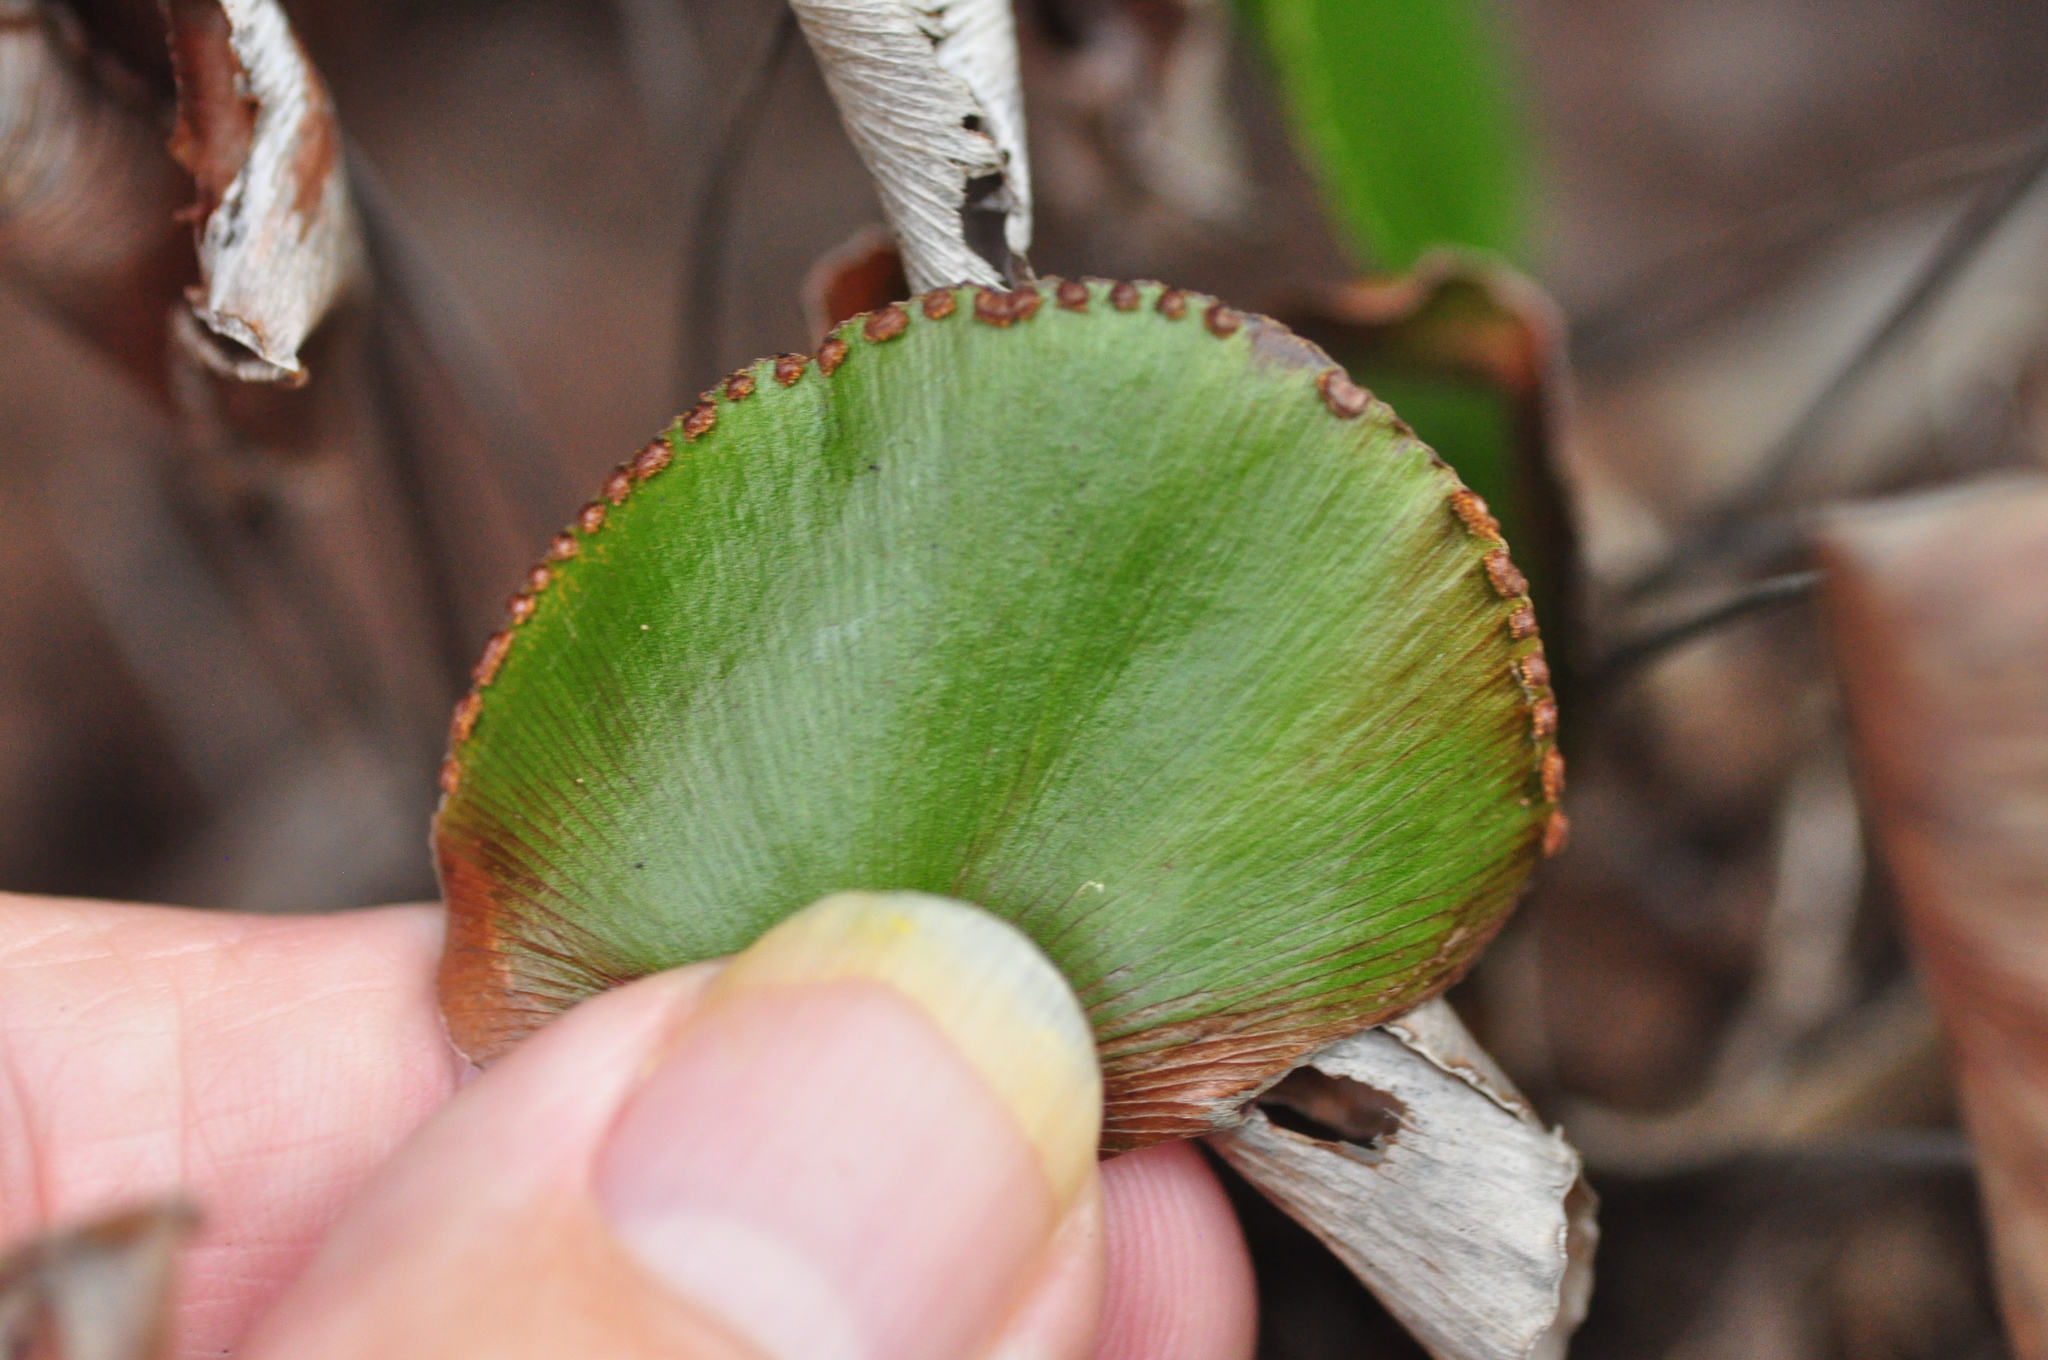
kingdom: Plantae
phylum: Tracheophyta
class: Polypodiopsida
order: Polypodiales
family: Pteridaceae
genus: Adiantum
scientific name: Adiantum reniforme
